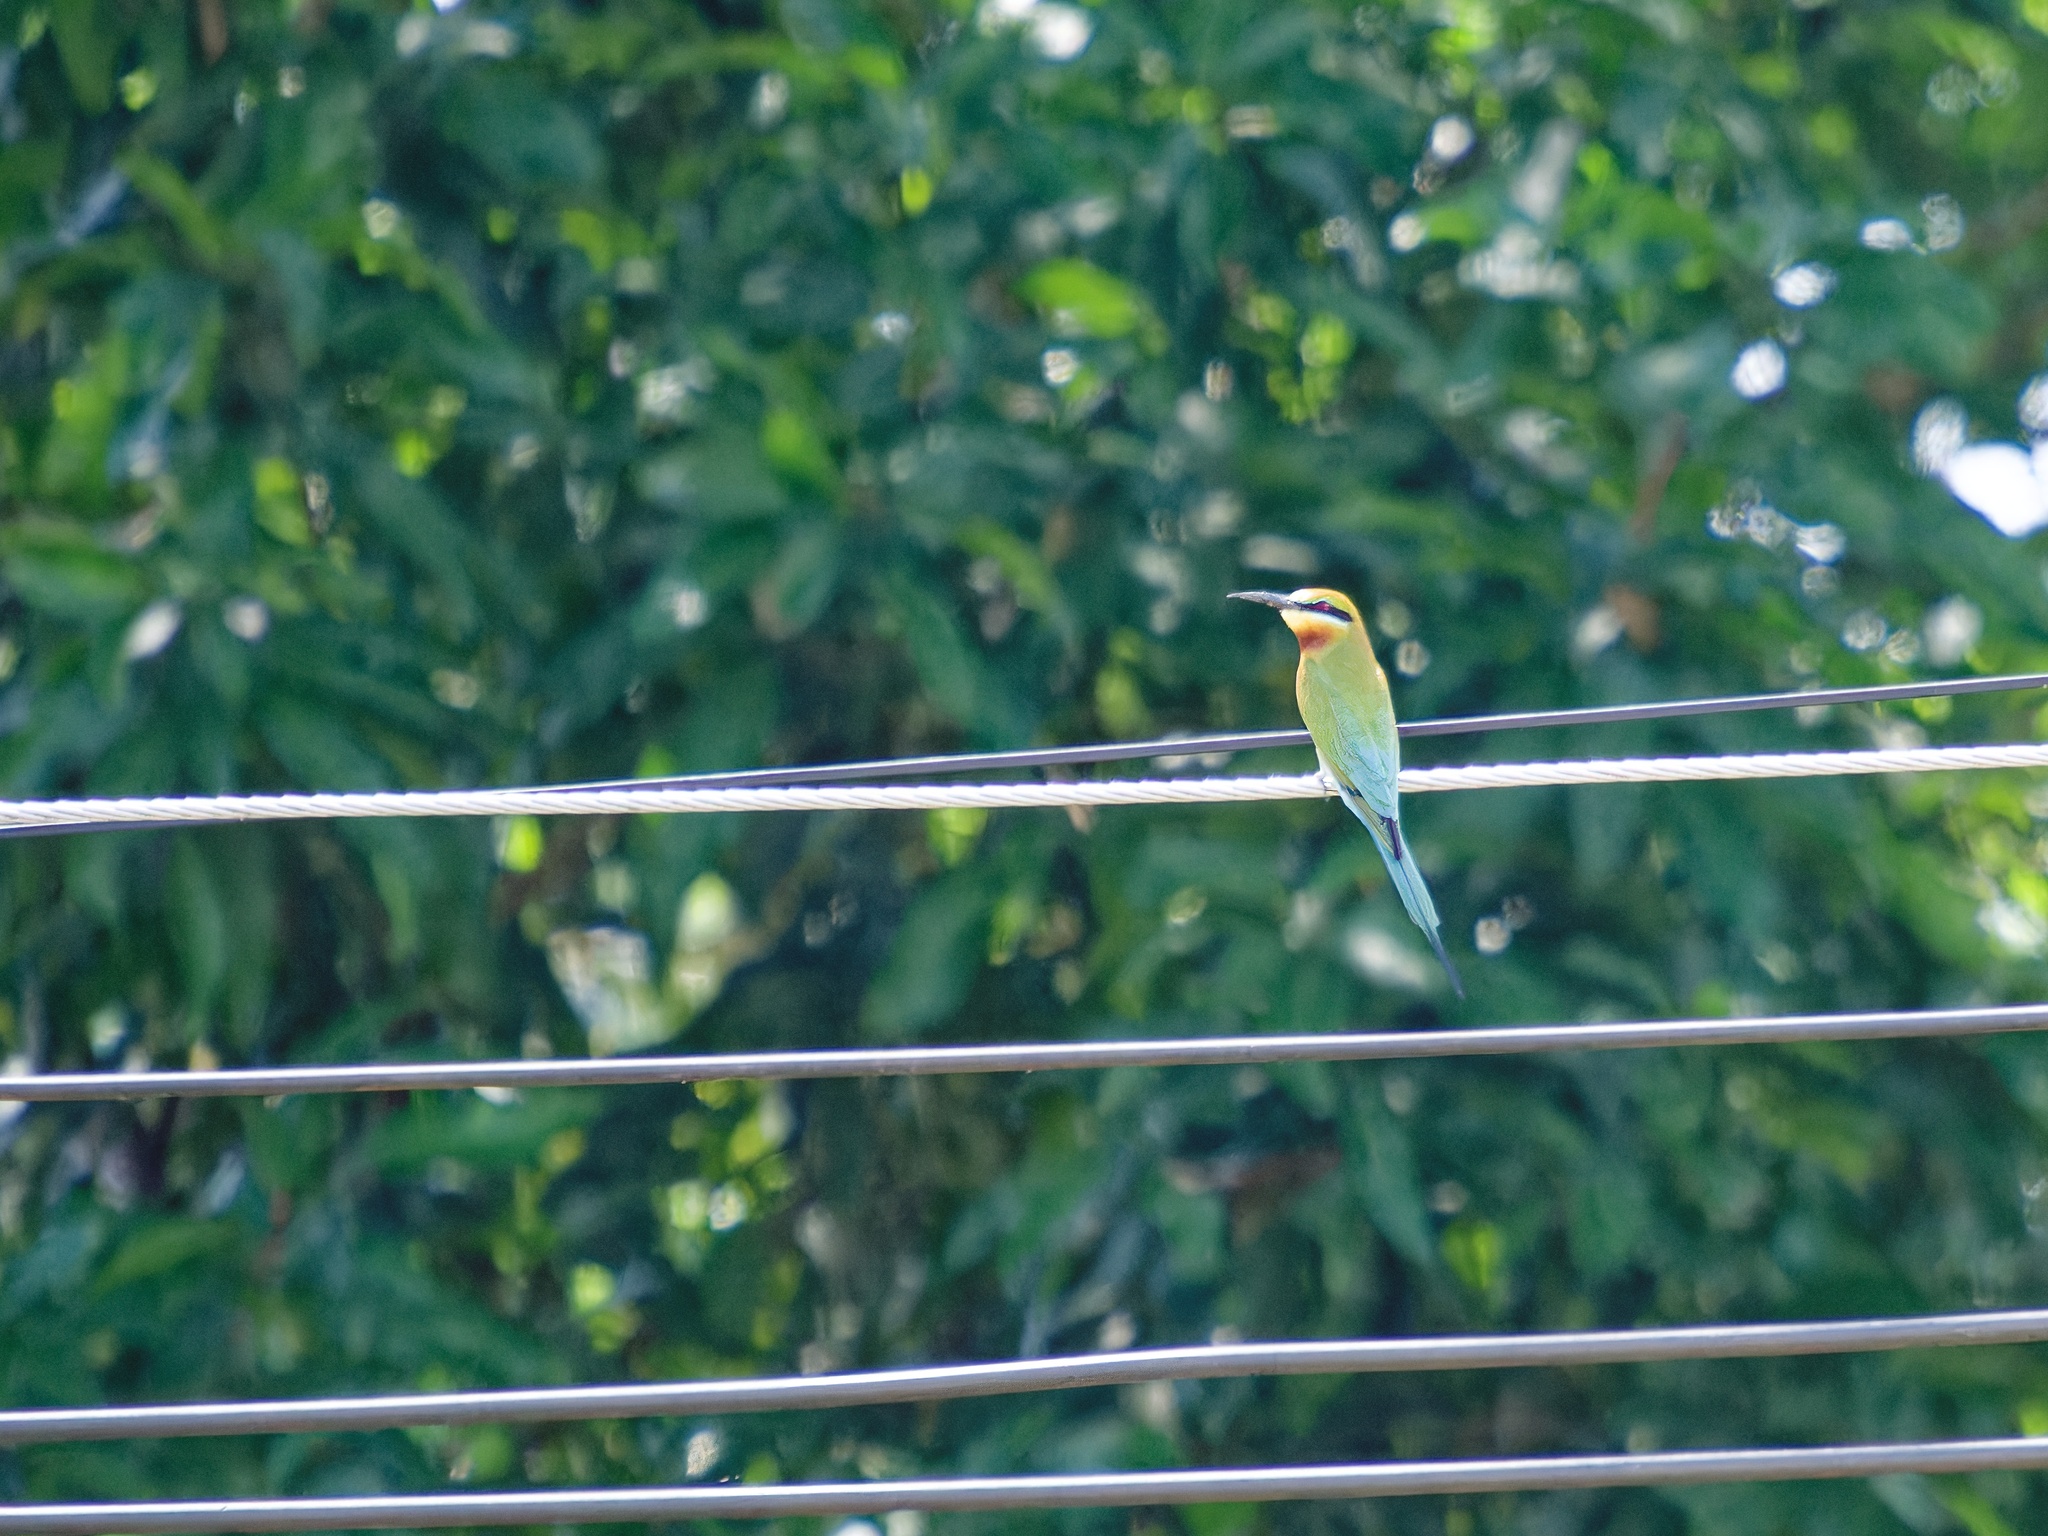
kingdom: Animalia
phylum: Chordata
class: Aves
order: Coraciiformes
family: Meropidae
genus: Merops
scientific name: Merops philippinus
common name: Blue-tailed bee-eater
